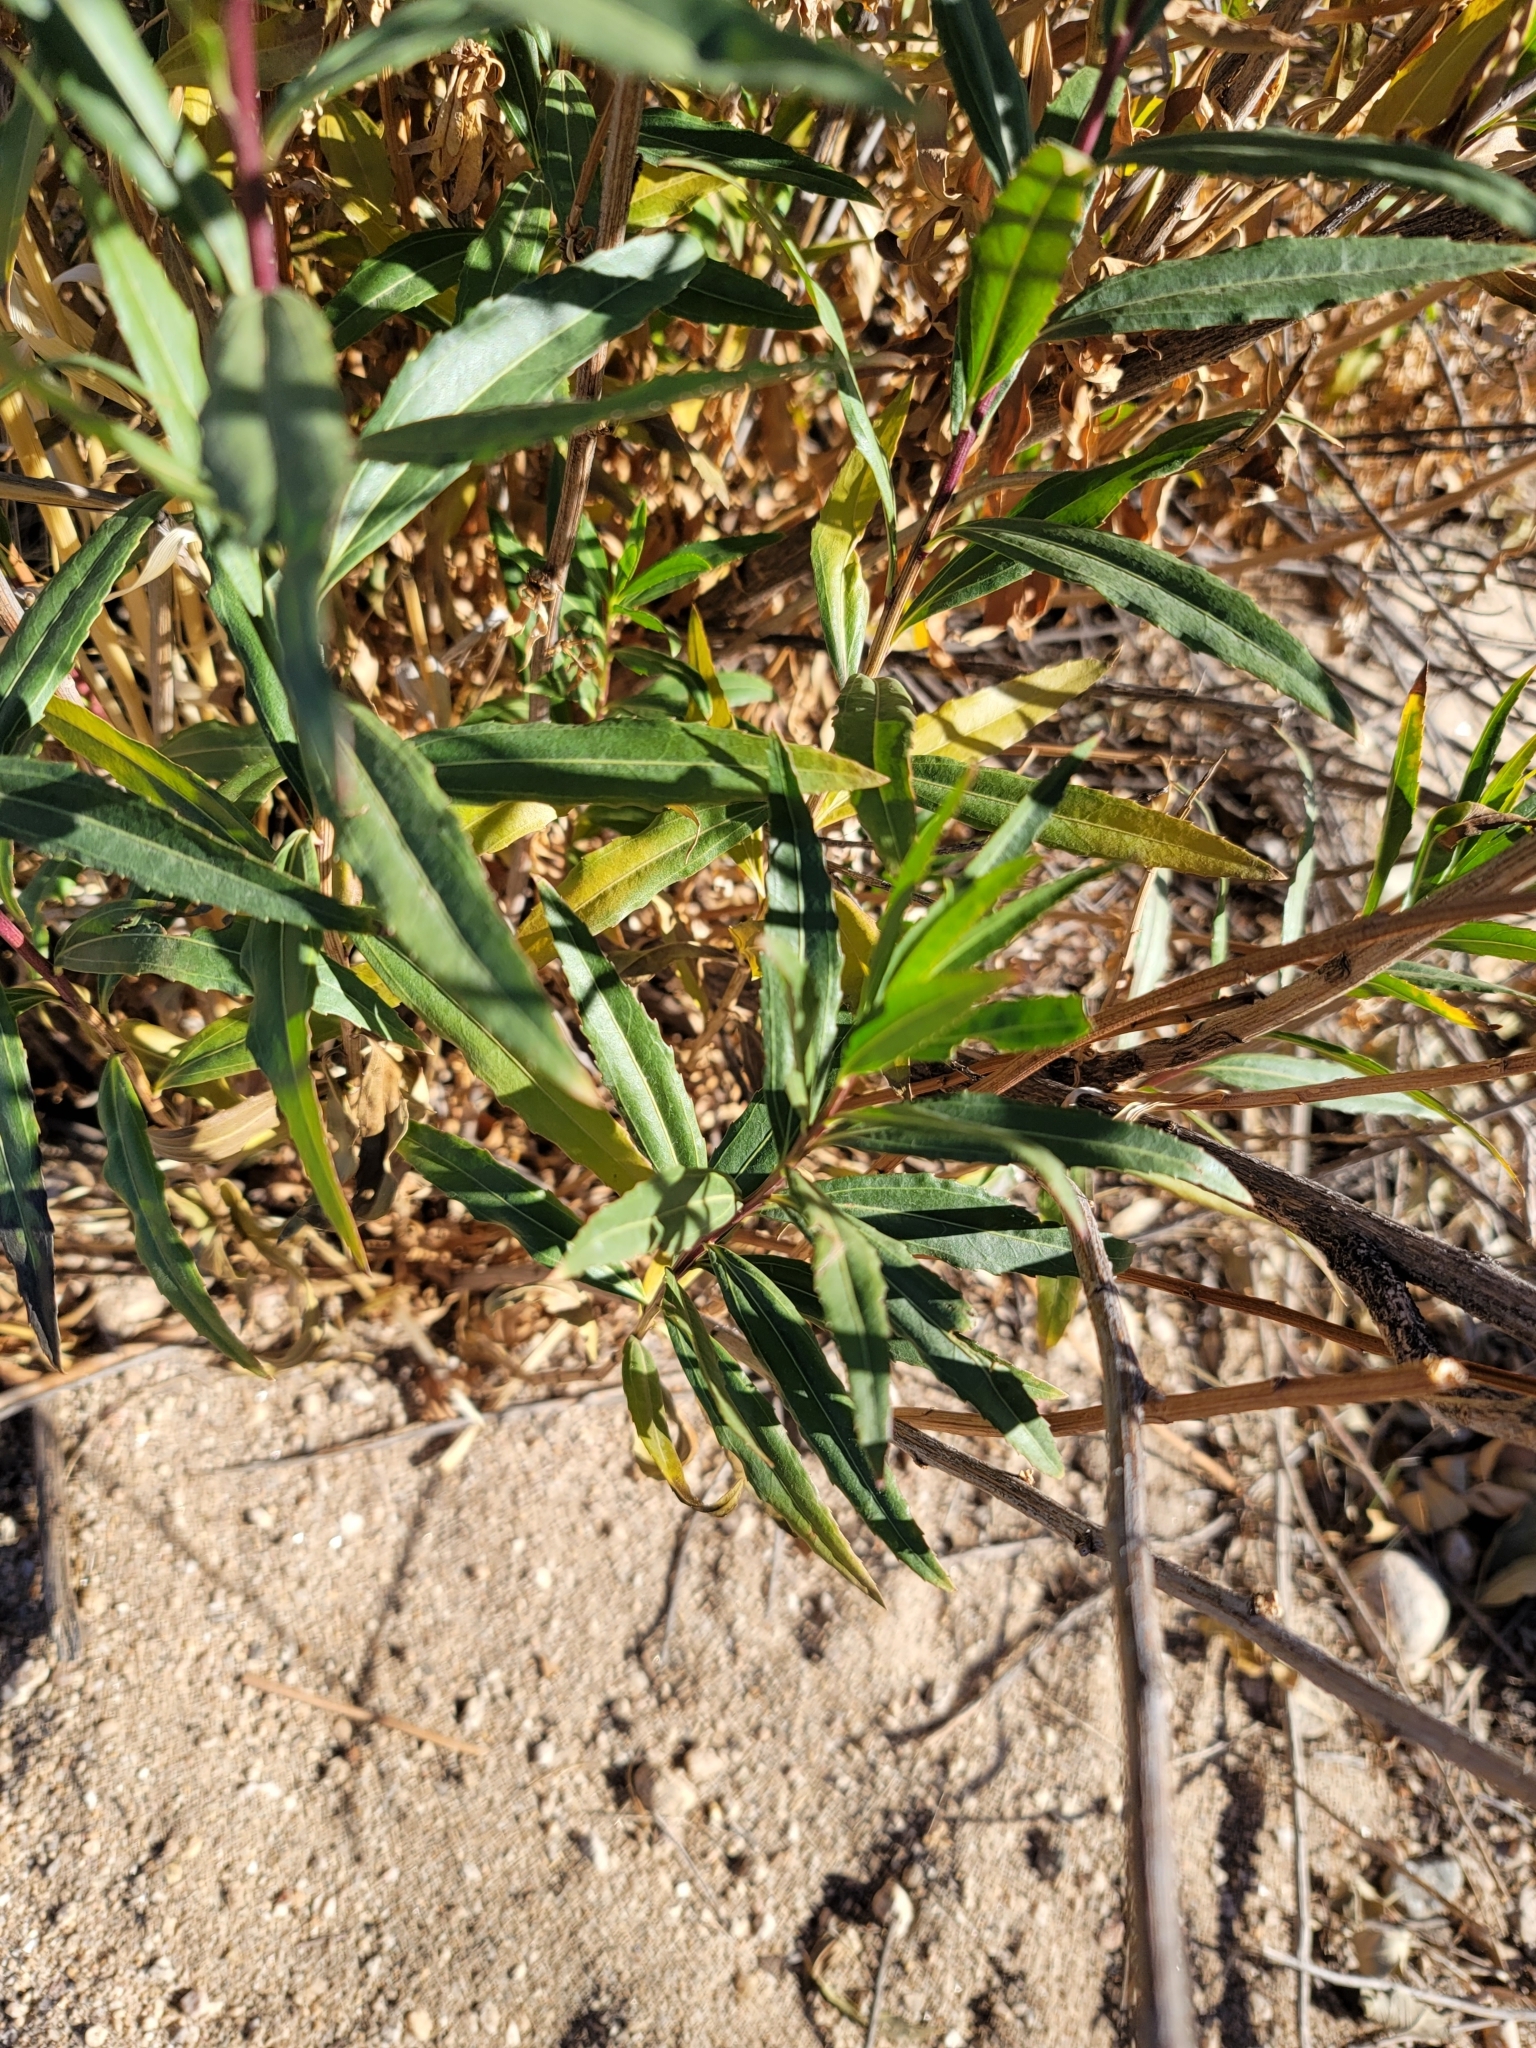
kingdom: Plantae
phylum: Tracheophyta
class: Magnoliopsida
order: Asterales
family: Asteraceae
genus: Baccharis
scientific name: Baccharis salicifolia
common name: Sticky baccharis
